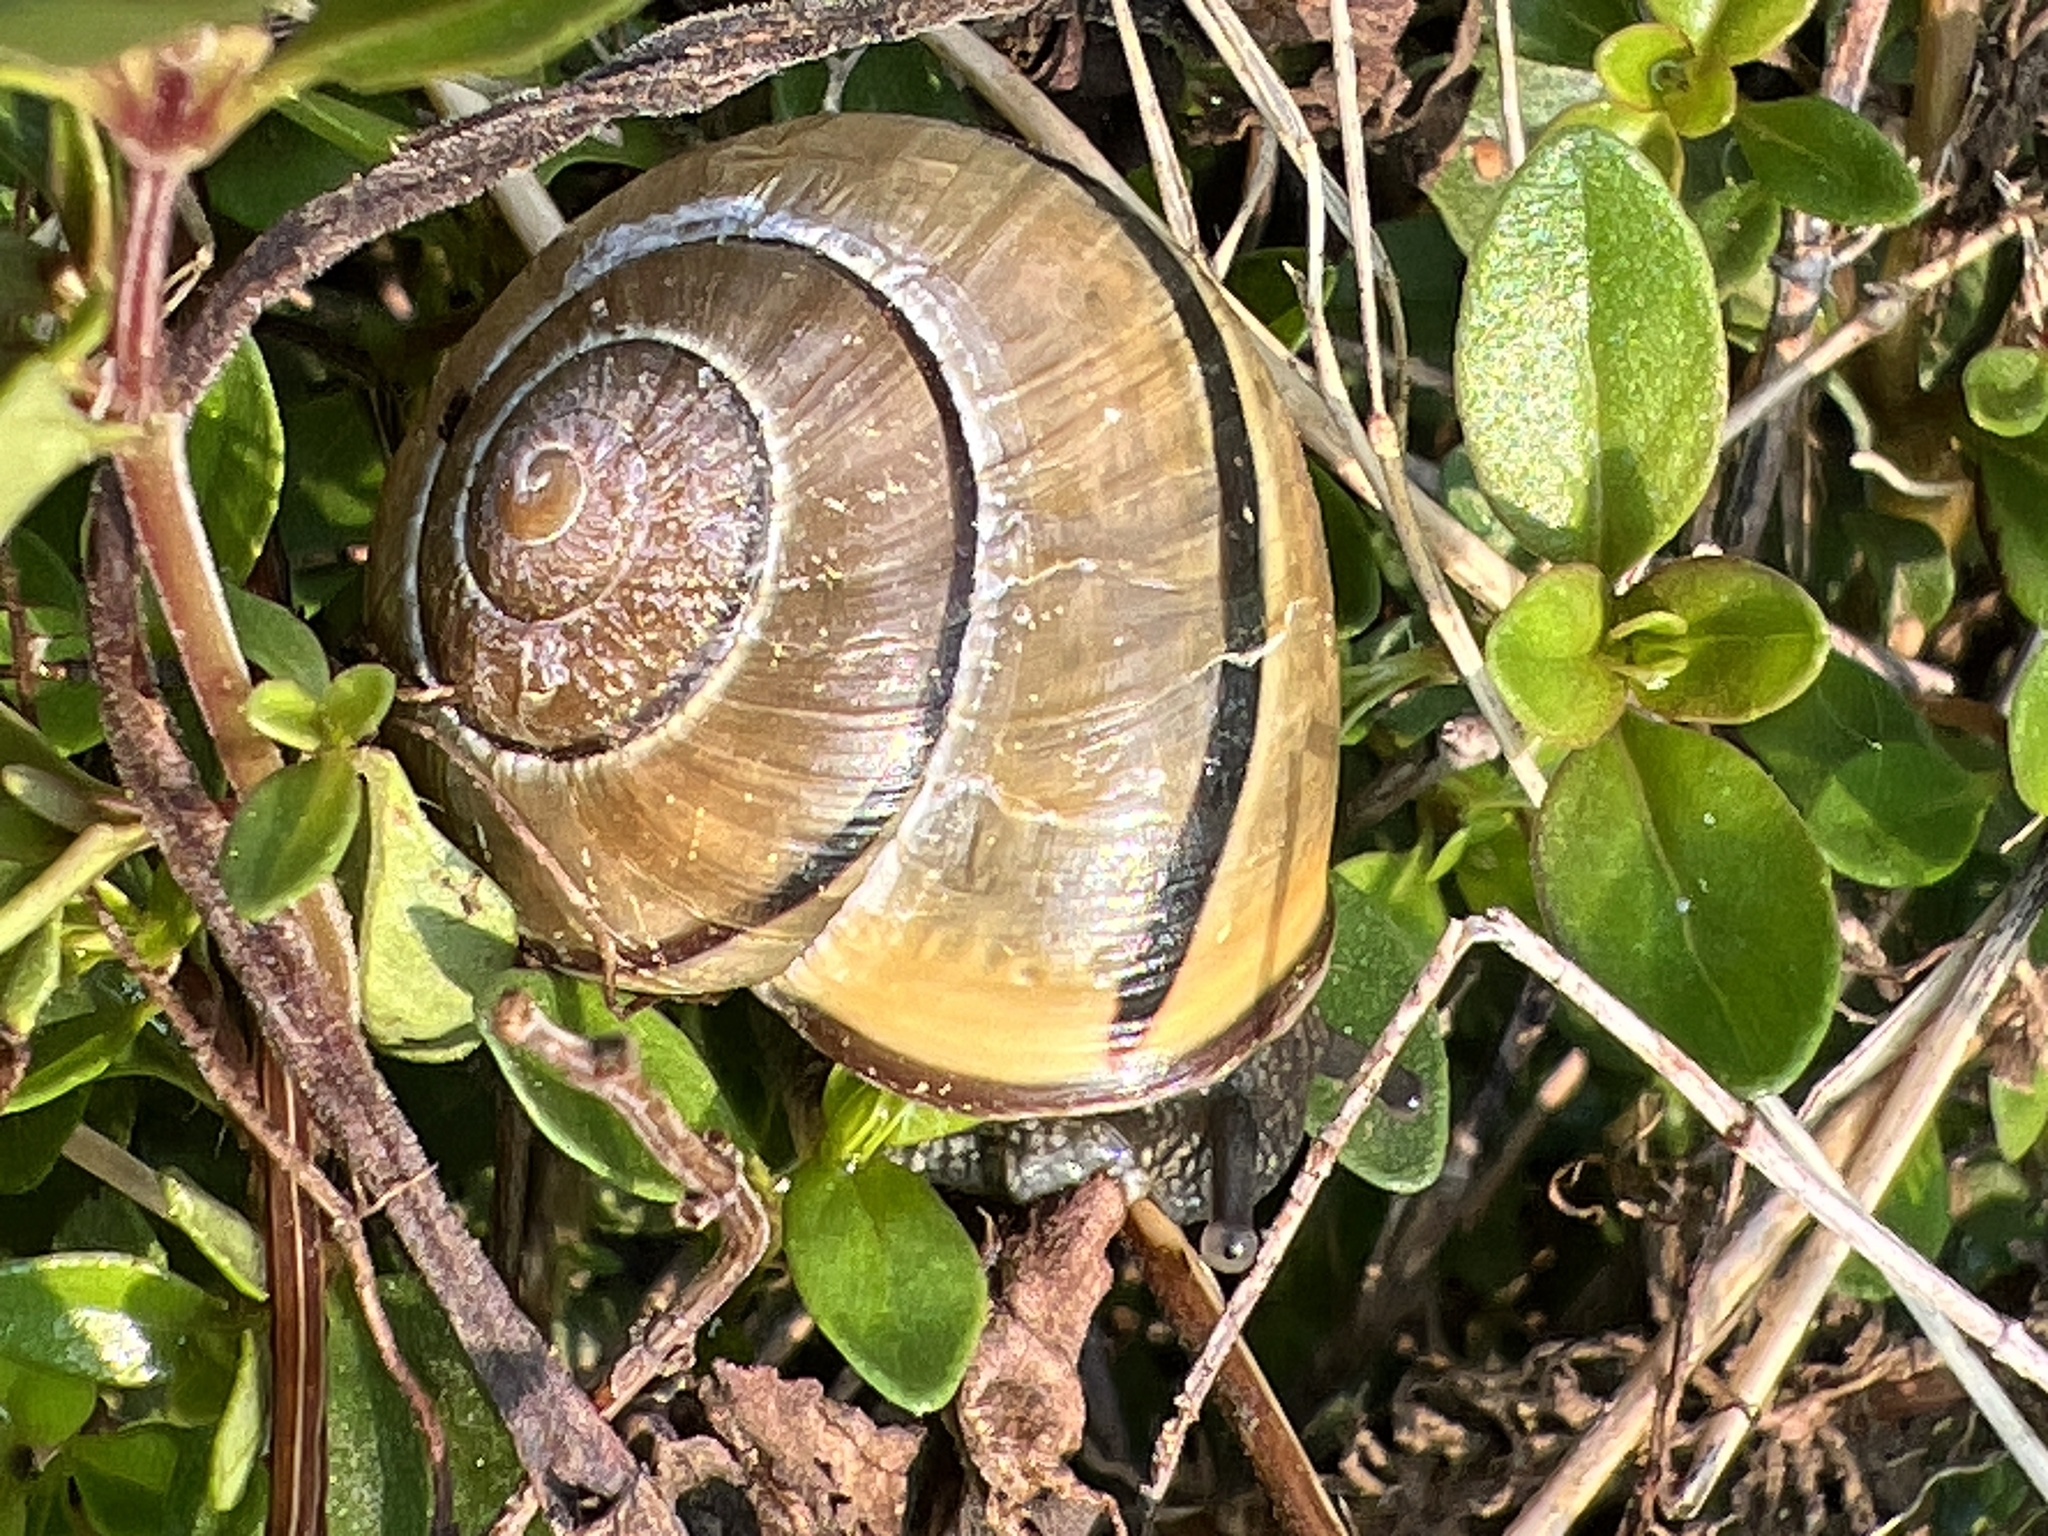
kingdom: Animalia
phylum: Mollusca
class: Gastropoda
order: Stylommatophora
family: Helicidae
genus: Cepaea
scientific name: Cepaea nemoralis
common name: Grovesnail
